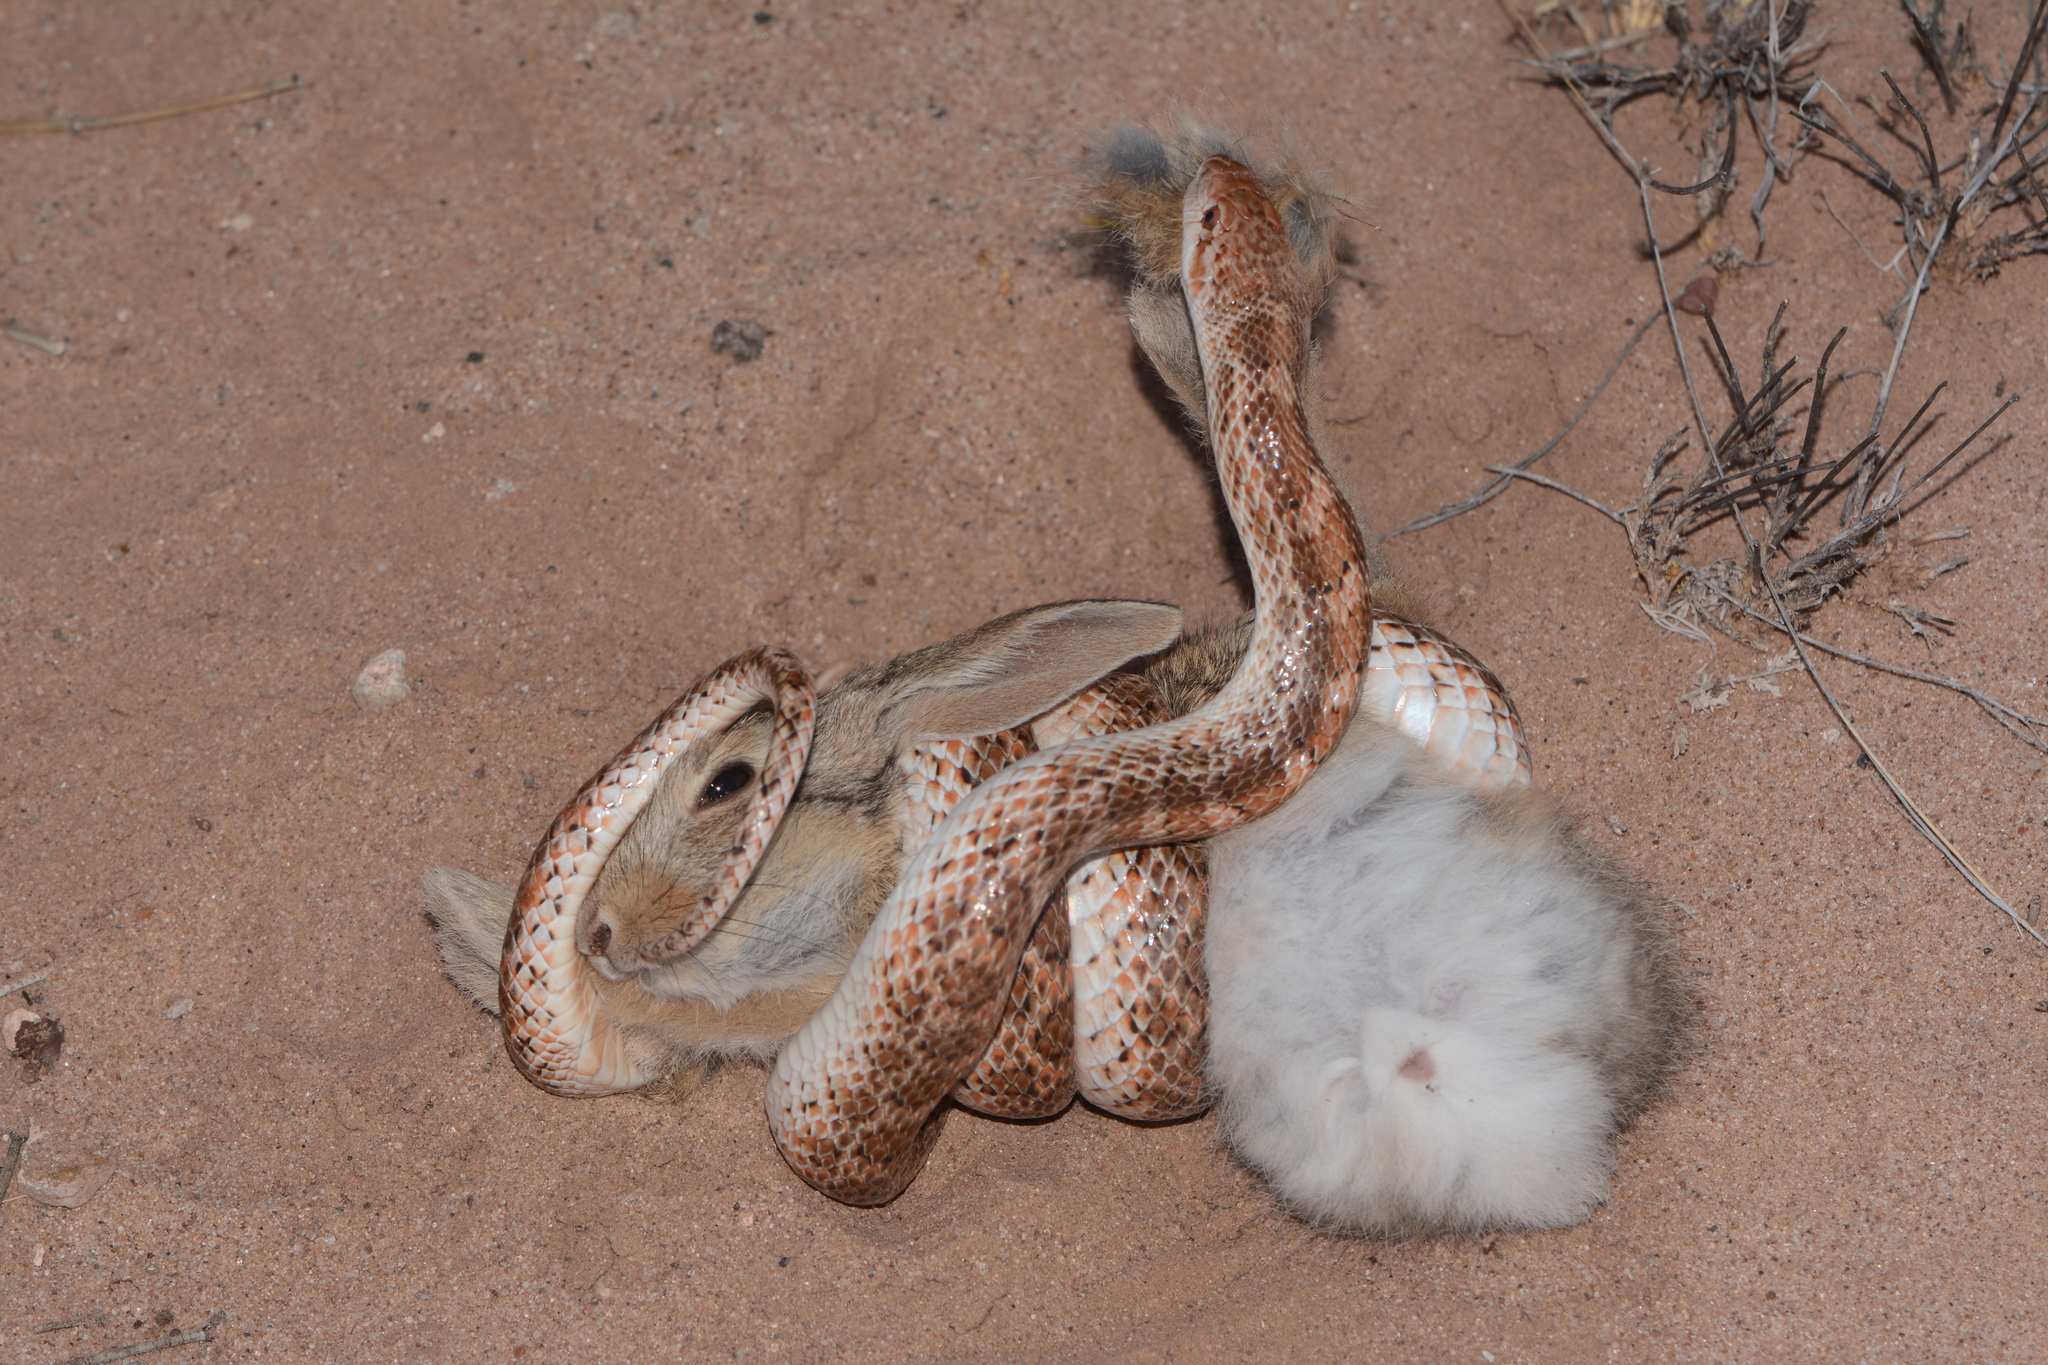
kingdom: Animalia
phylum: Chordata
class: Squamata
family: Colubridae
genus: Arizona
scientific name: Arizona elegans
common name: Glossy snake
